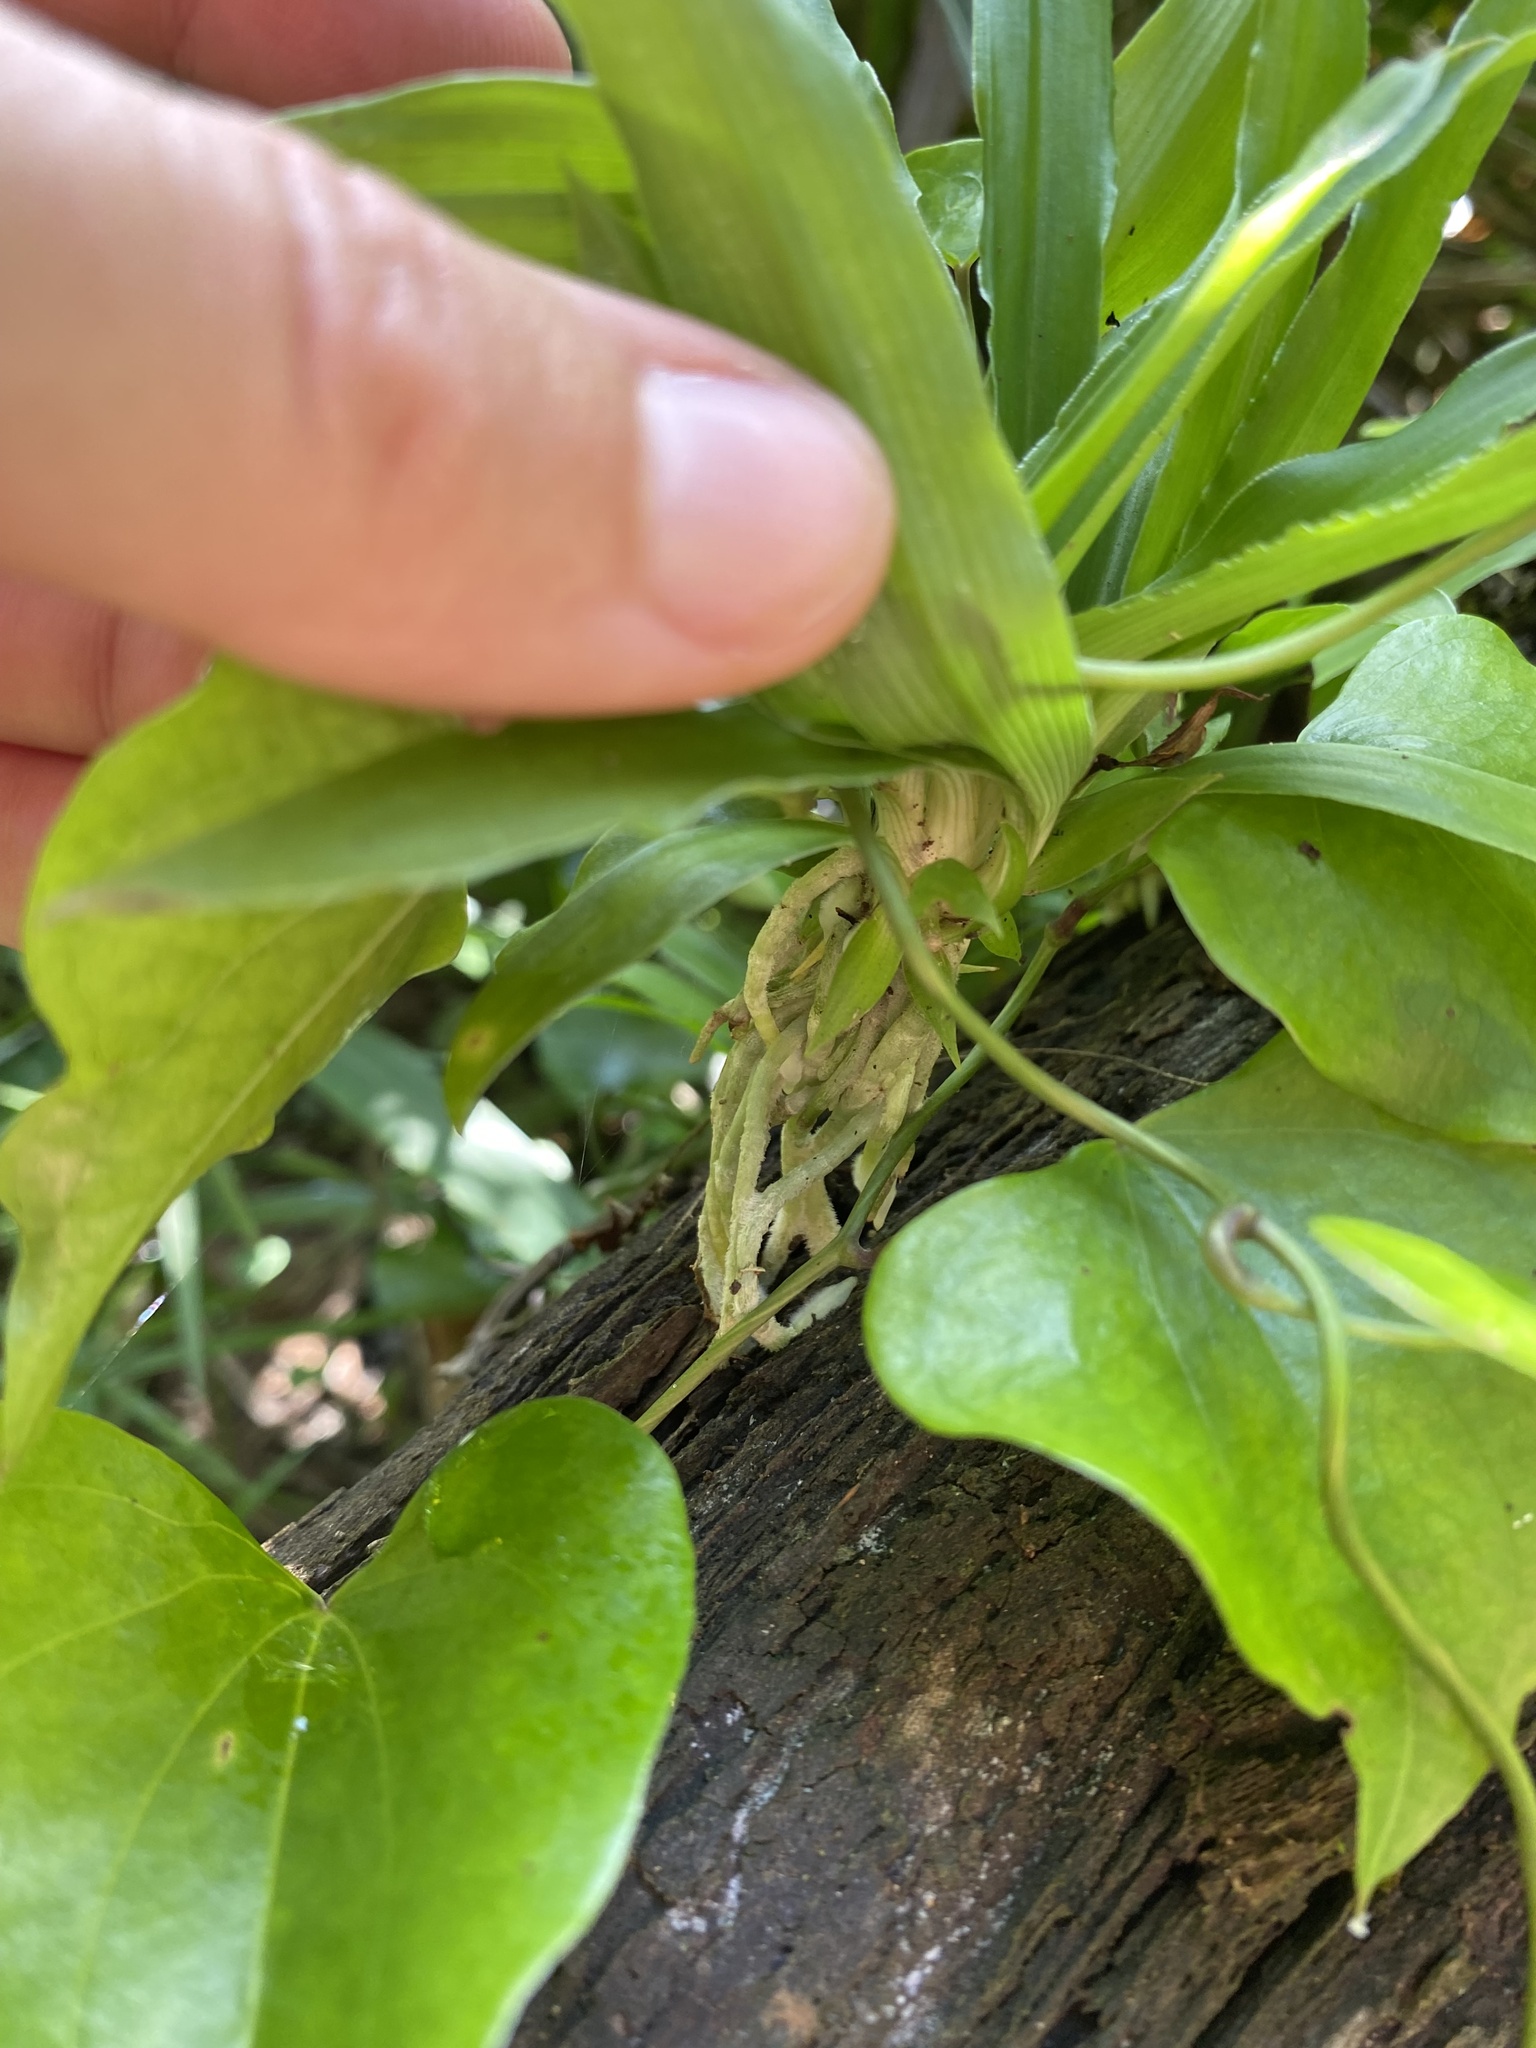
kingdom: Plantae
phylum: Tracheophyta
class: Liliopsida
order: Asparagales
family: Asparagaceae
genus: Chlorophytum
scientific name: Chlorophytum comosum
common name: Spider plant
